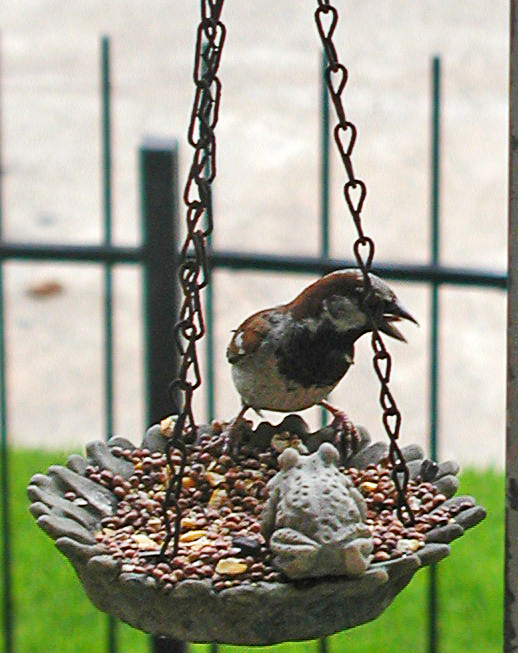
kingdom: Animalia
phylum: Chordata
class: Aves
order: Passeriformes
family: Passeridae
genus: Passer
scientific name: Passer domesticus
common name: House sparrow
